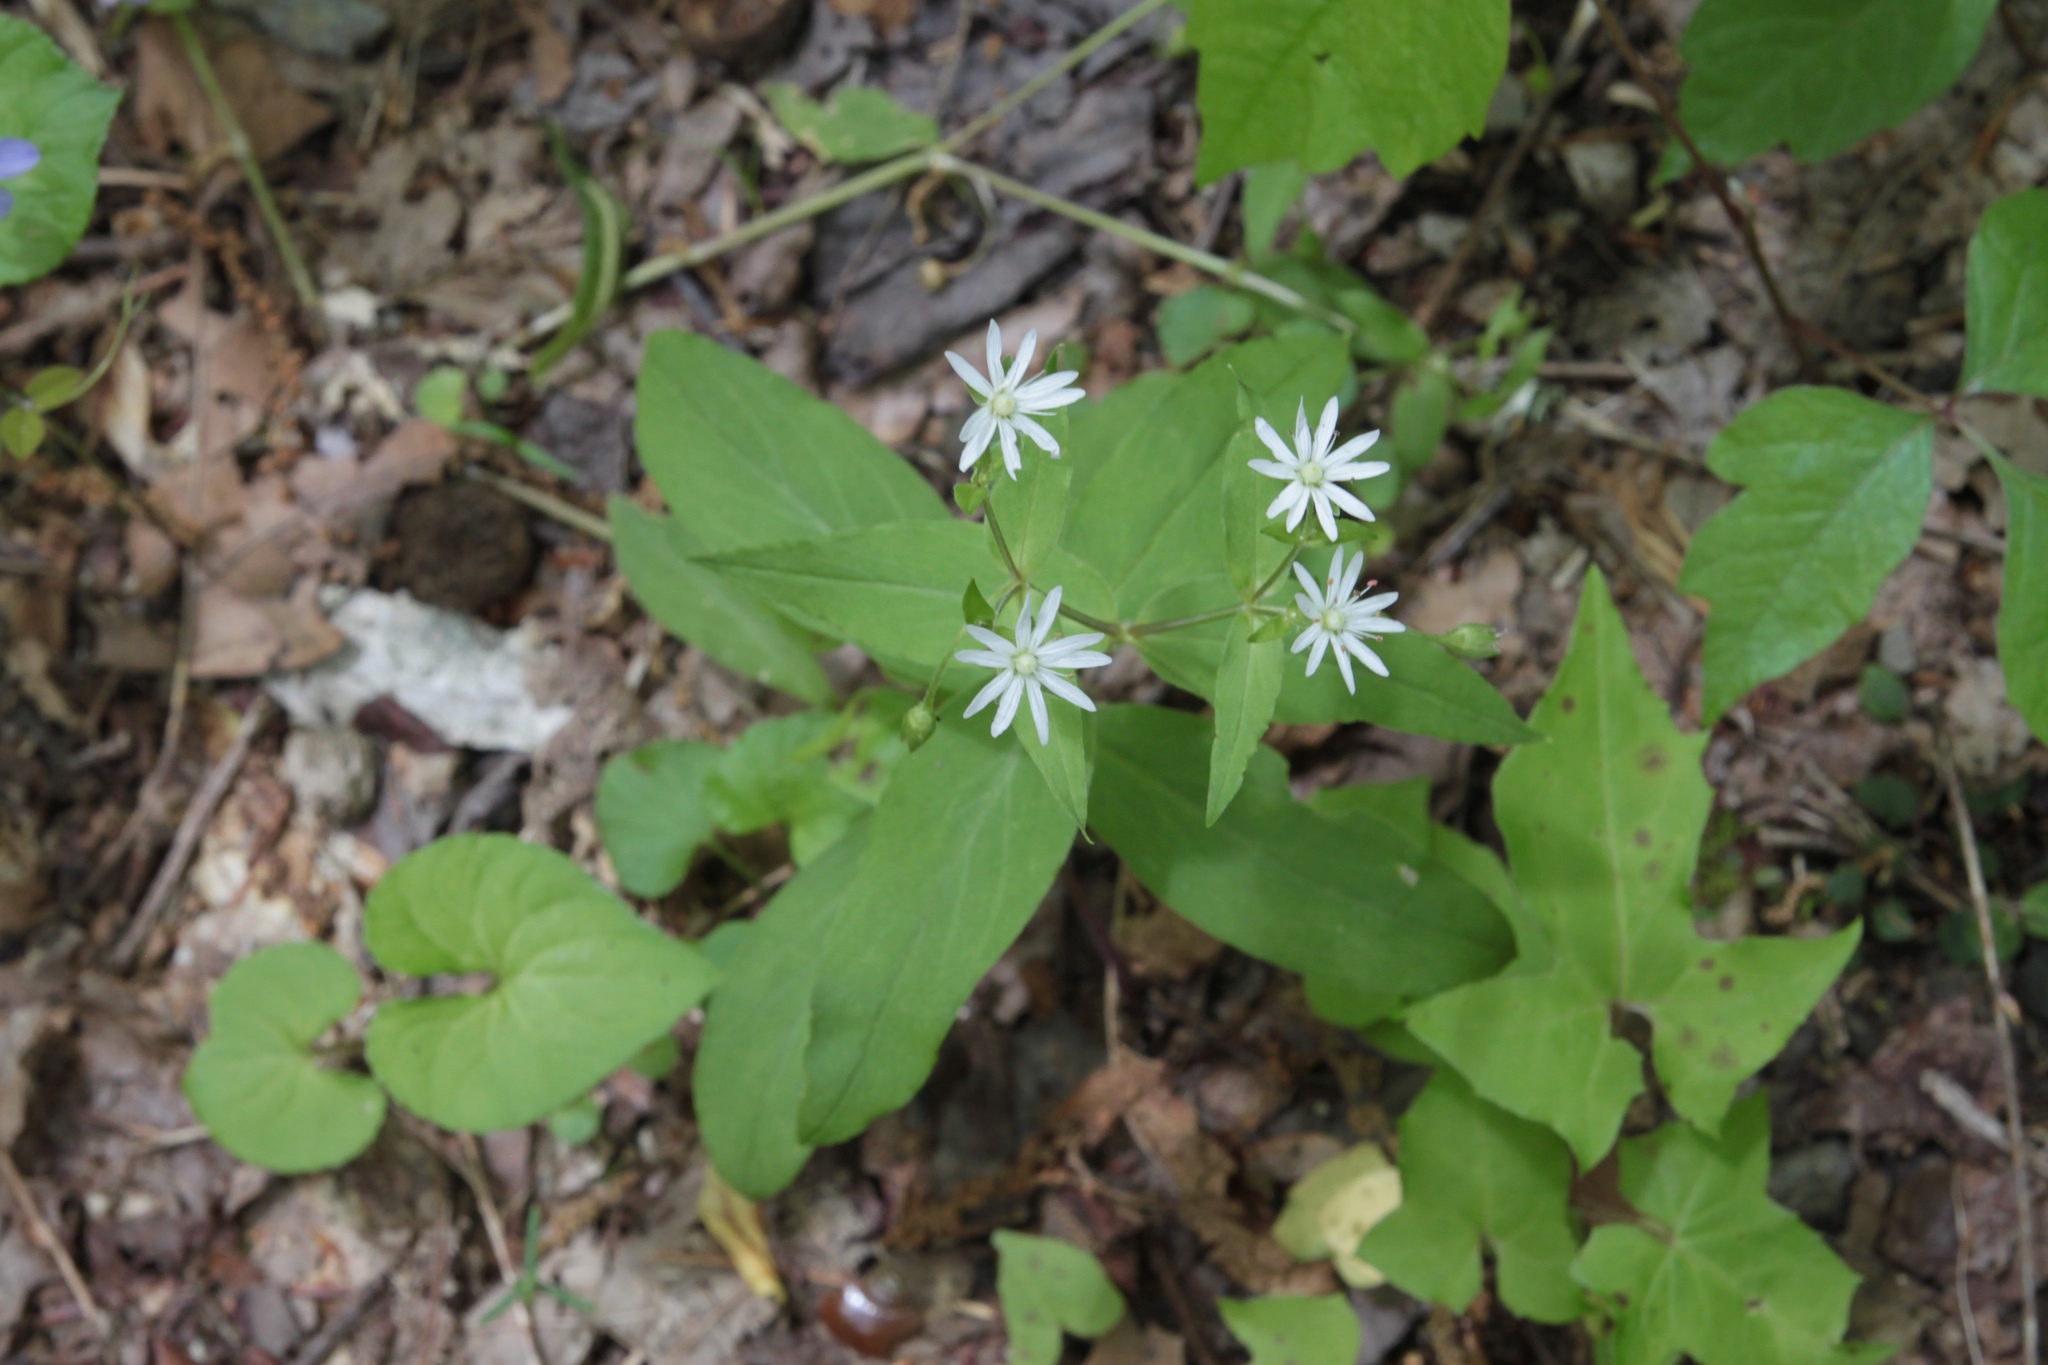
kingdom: Plantae
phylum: Tracheophyta
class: Magnoliopsida
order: Caryophyllales
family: Caryophyllaceae
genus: Stellaria
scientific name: Stellaria pubera
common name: Star chickweed
